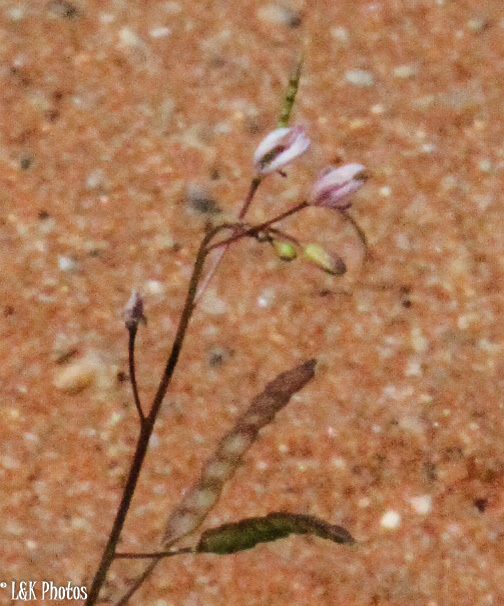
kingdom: Plantae
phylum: Tracheophyta
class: Magnoliopsida
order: Brassicales
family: Brassicaceae
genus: Heliophila
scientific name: Heliophila variabilis
